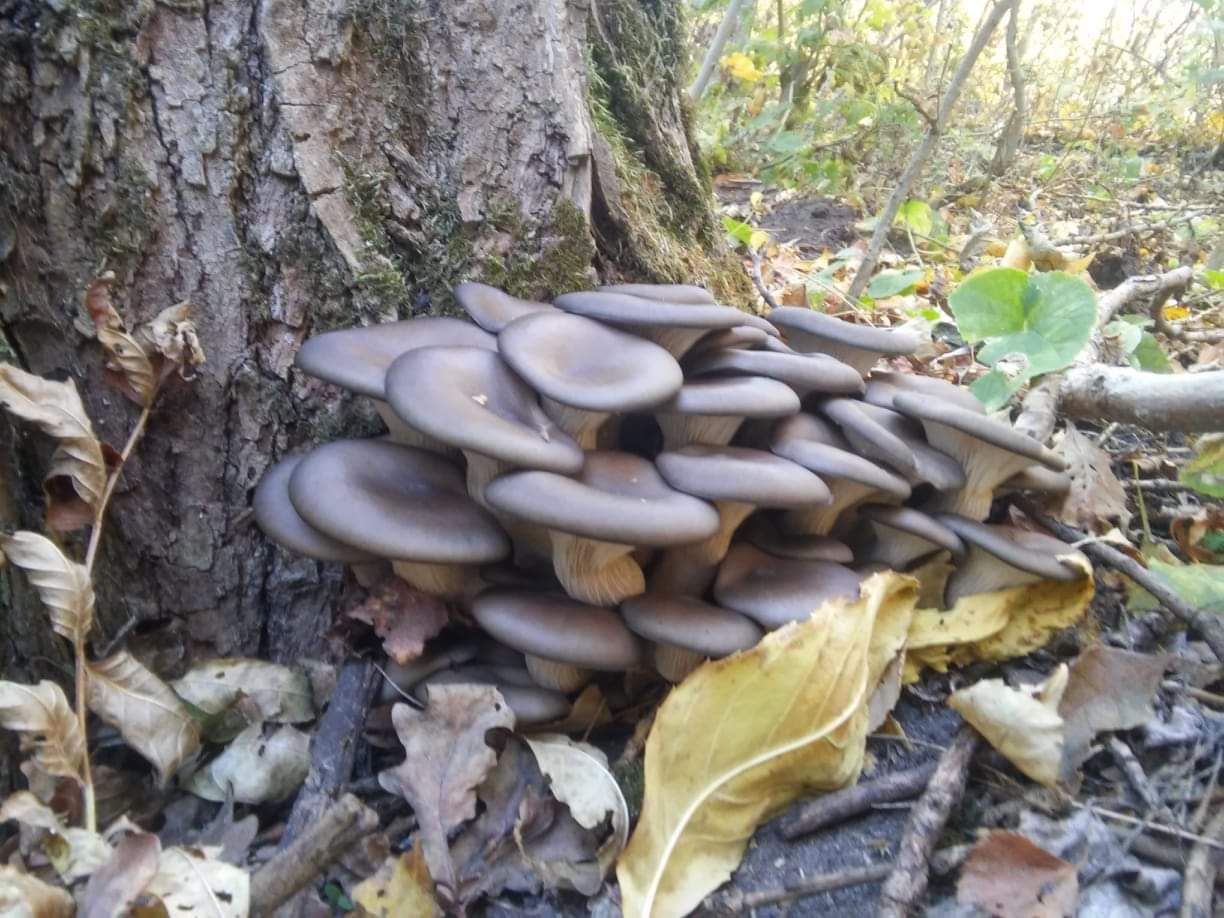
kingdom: Fungi
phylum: Basidiomycota
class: Agaricomycetes
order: Agaricales
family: Pleurotaceae
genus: Pleurotus
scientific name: Pleurotus ostreatus
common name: Oyster mushroom
